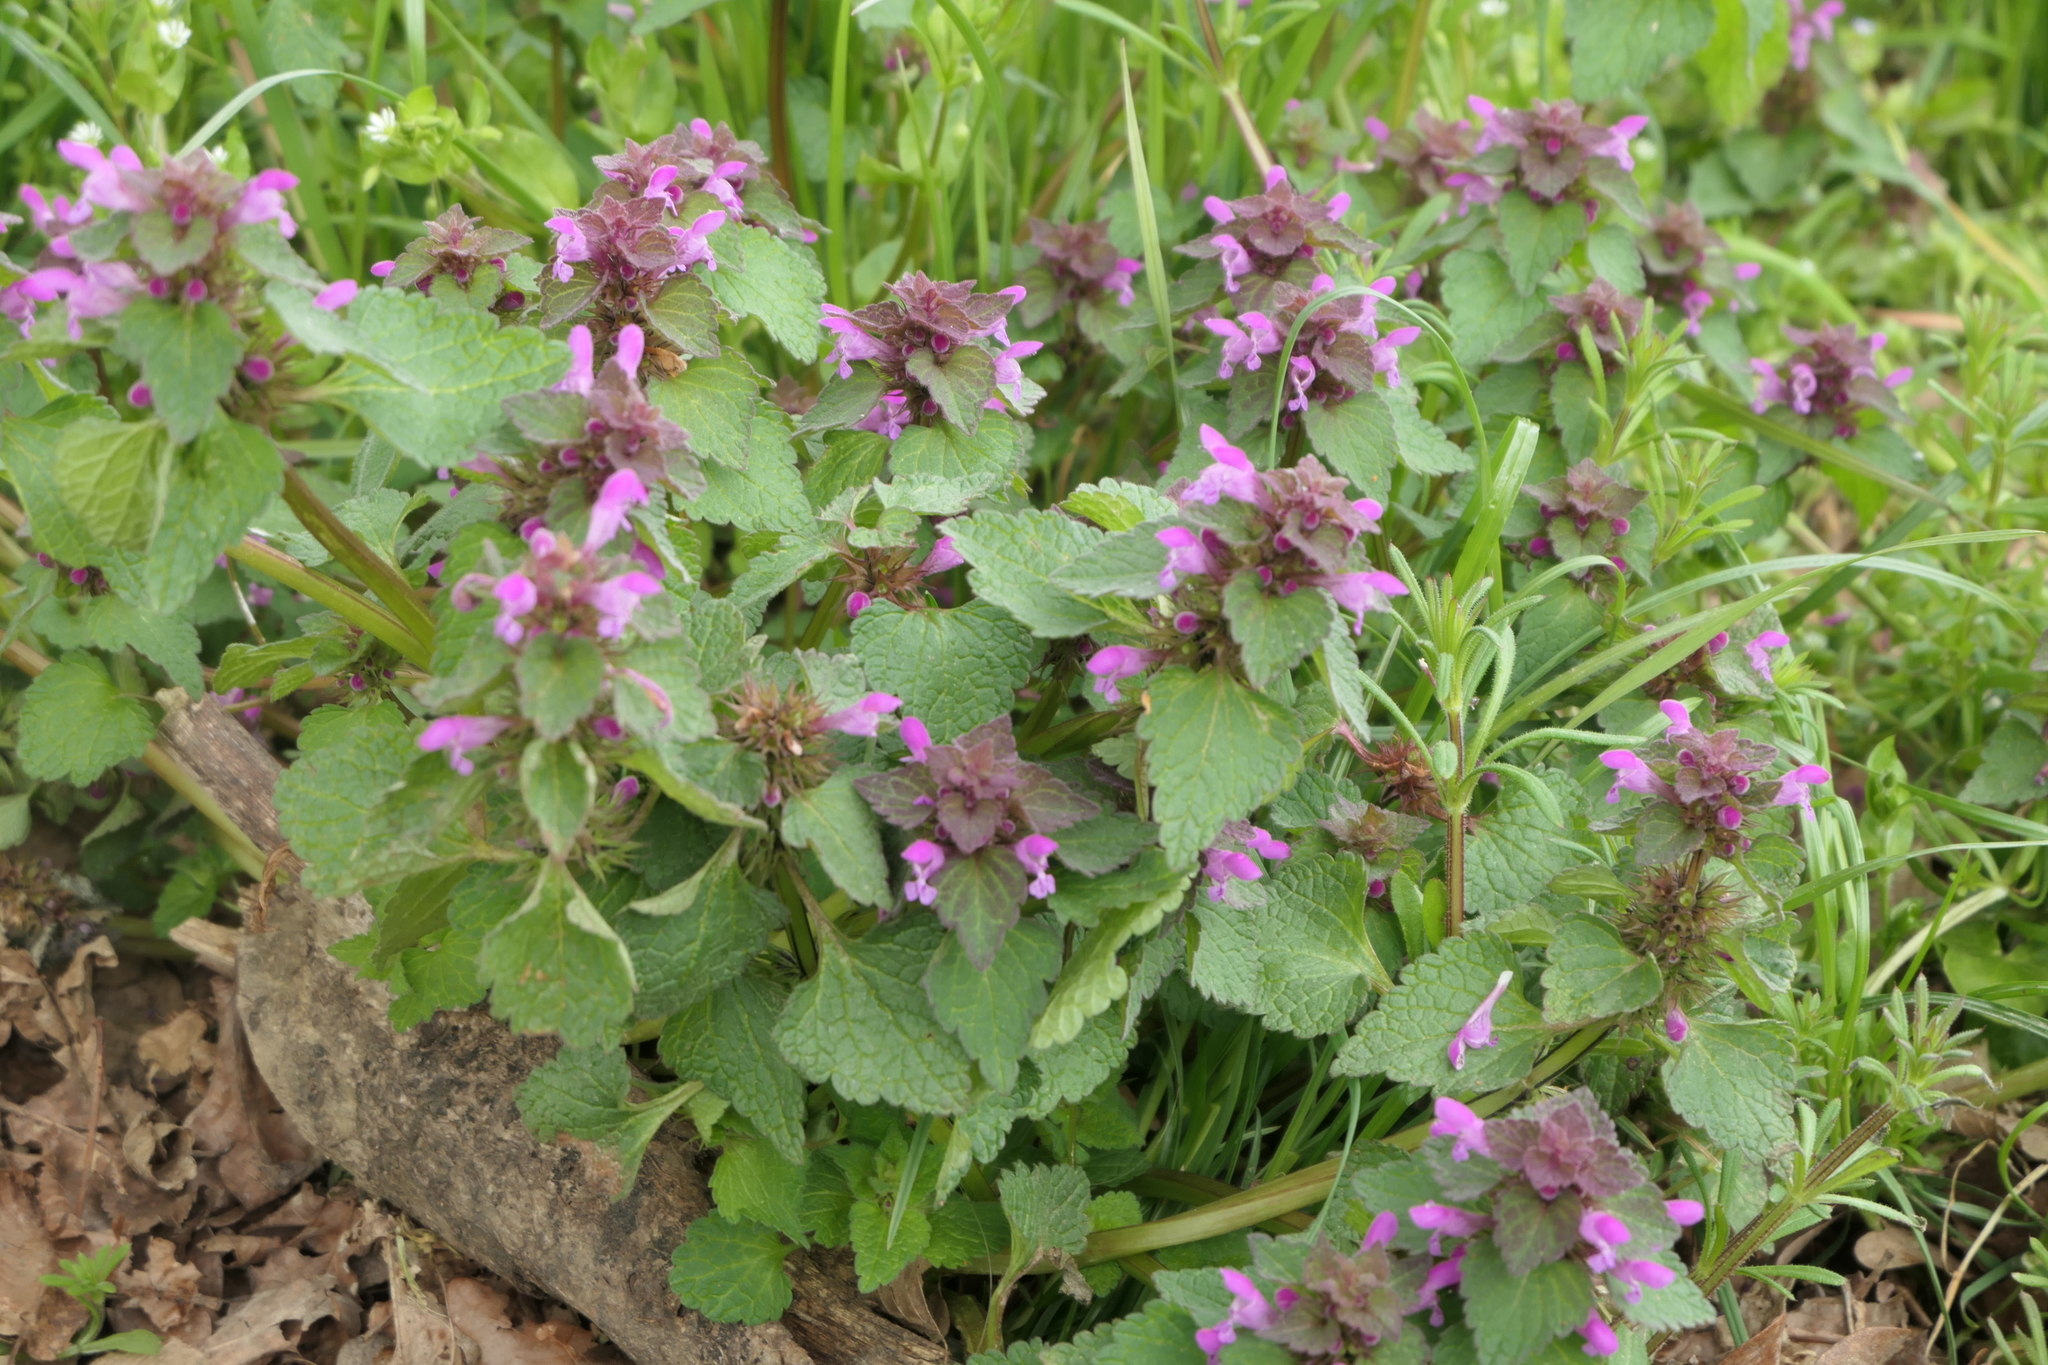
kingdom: Plantae
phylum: Tracheophyta
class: Magnoliopsida
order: Lamiales
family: Lamiaceae
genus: Lamium
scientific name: Lamium purpureum
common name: Red dead-nettle
